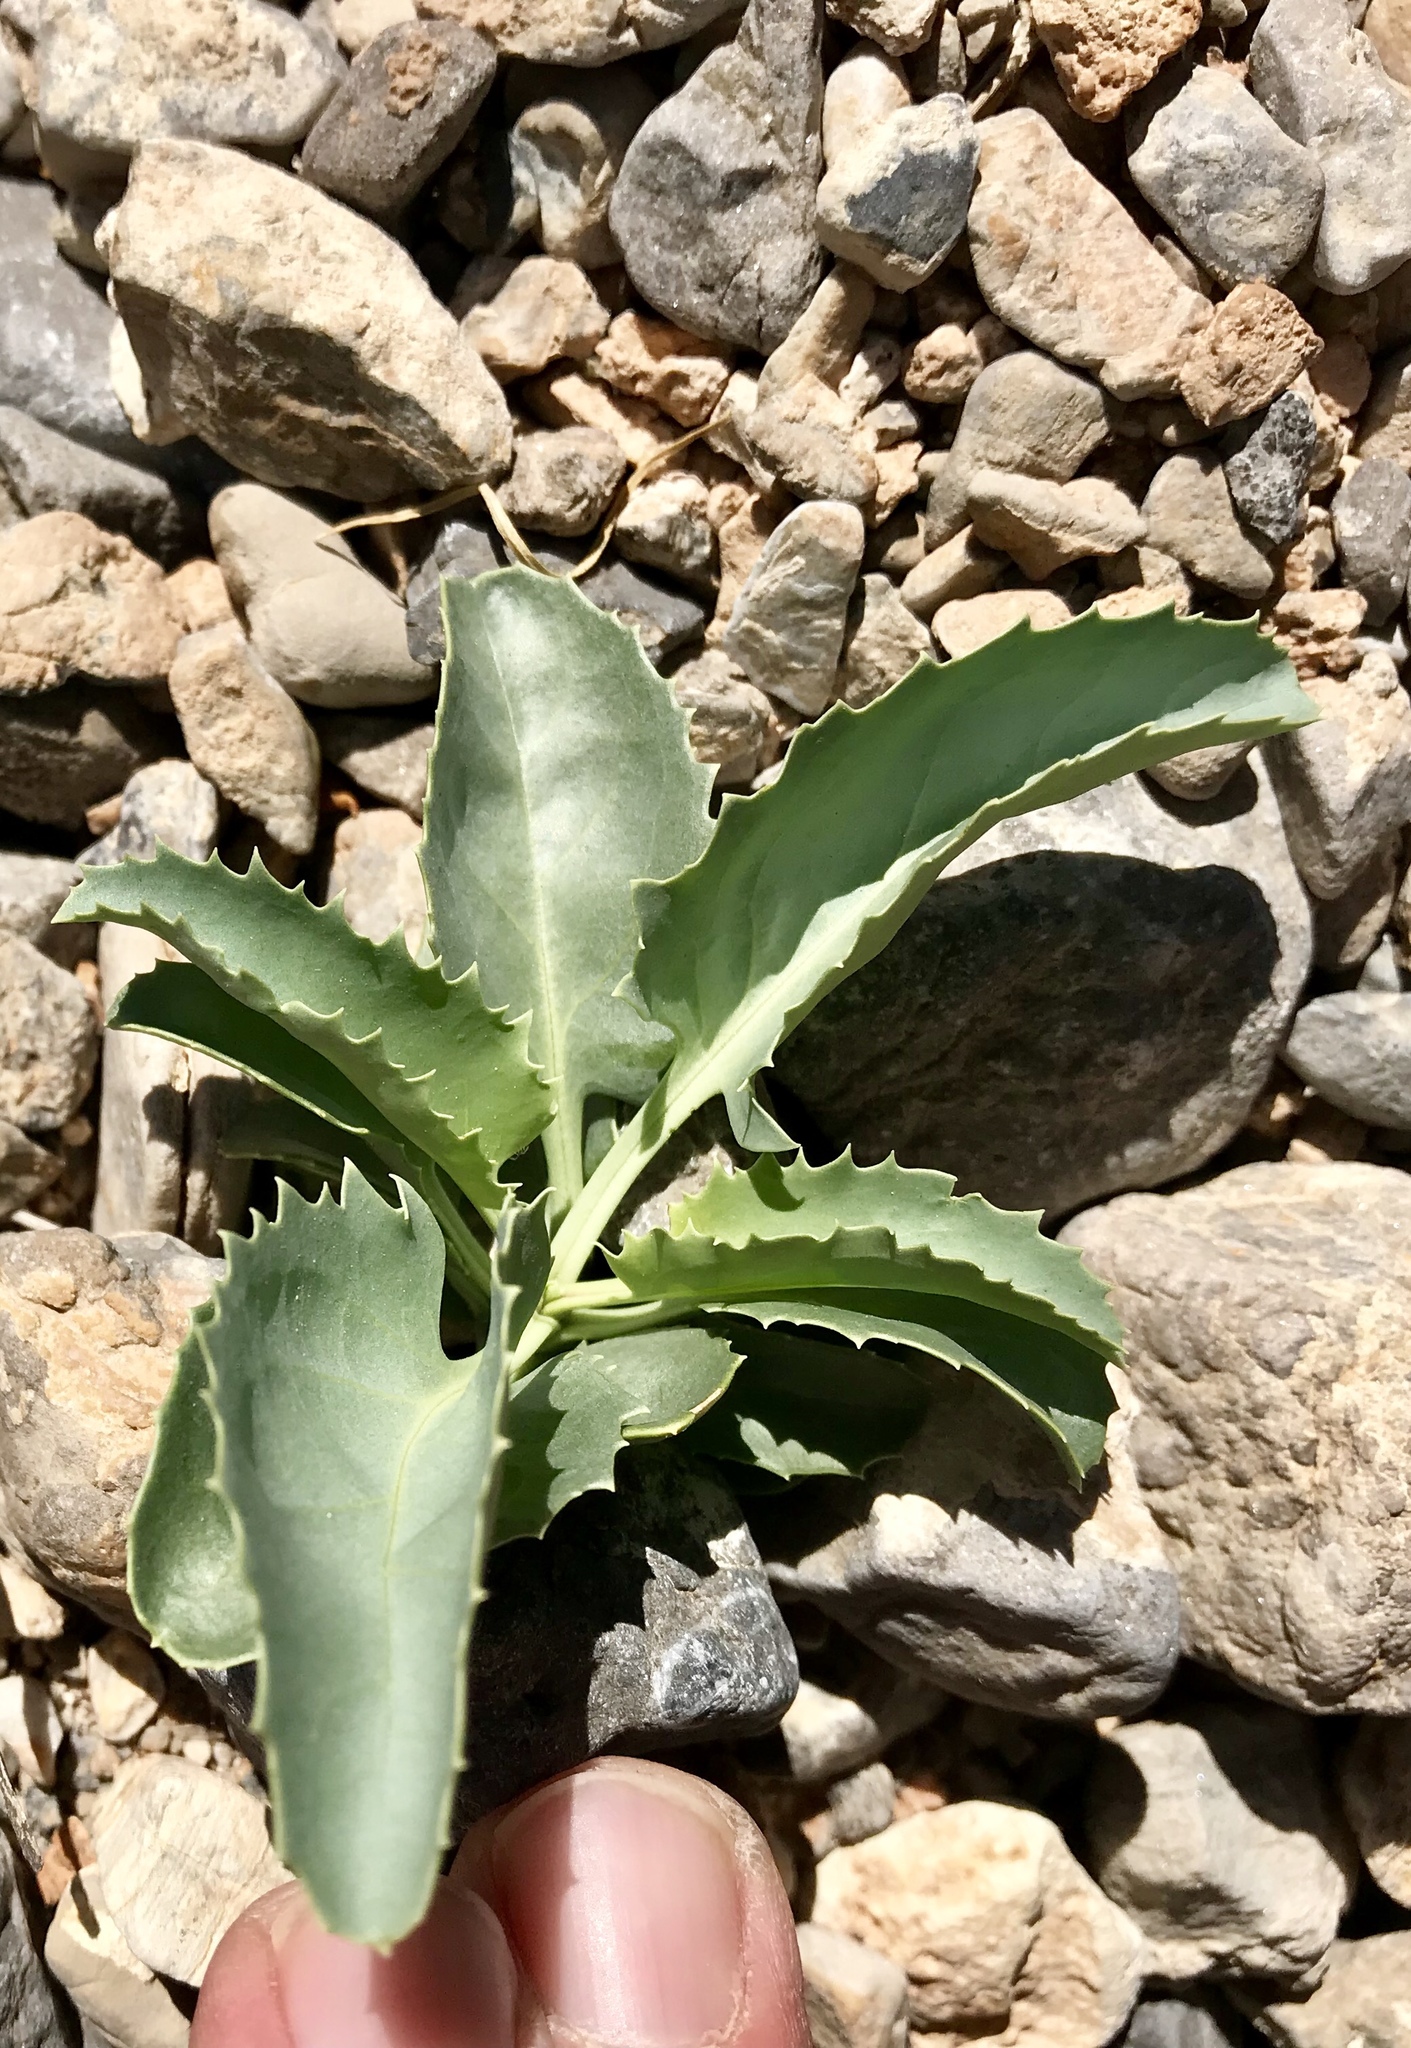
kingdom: Plantae
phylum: Tracheophyta
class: Magnoliopsida
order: Lamiales
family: Plantaginaceae
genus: Penstemon
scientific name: Penstemon palmeri
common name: Palmer penstemon
